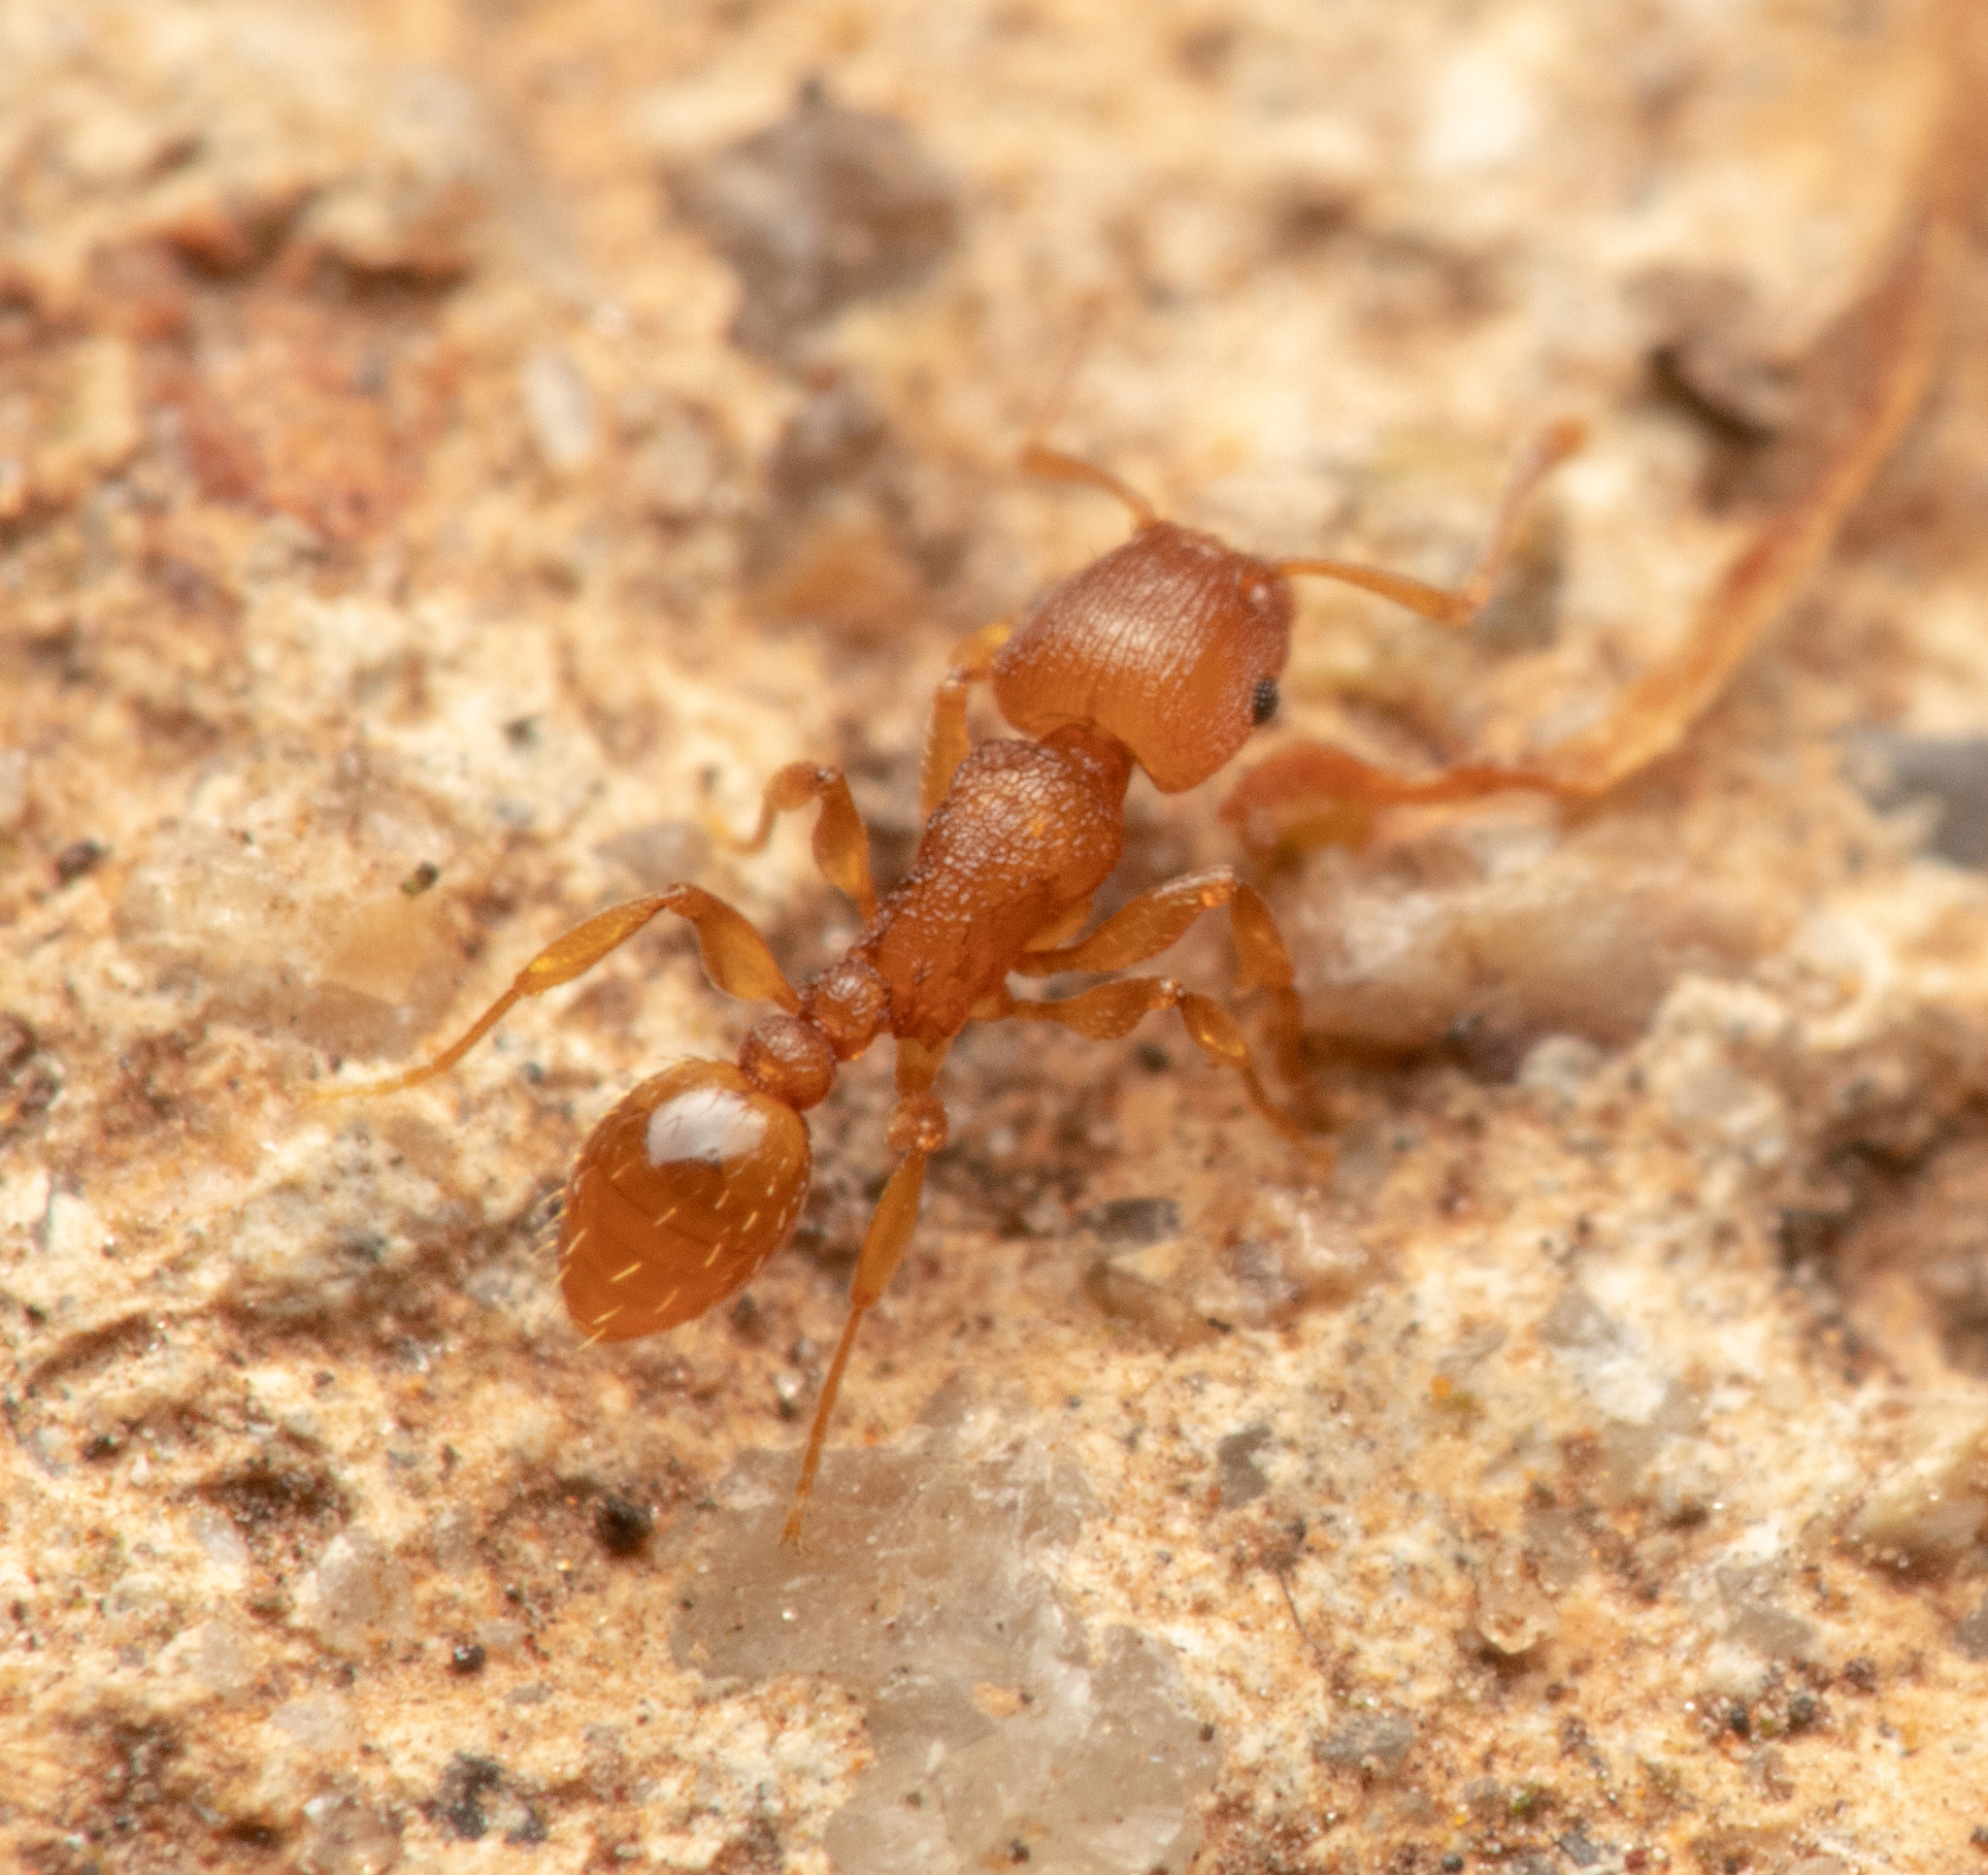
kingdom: Animalia
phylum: Arthropoda
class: Insecta
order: Hymenoptera
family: Formicidae
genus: Tetramorium
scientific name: Tetramorium simillimum
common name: Ant
